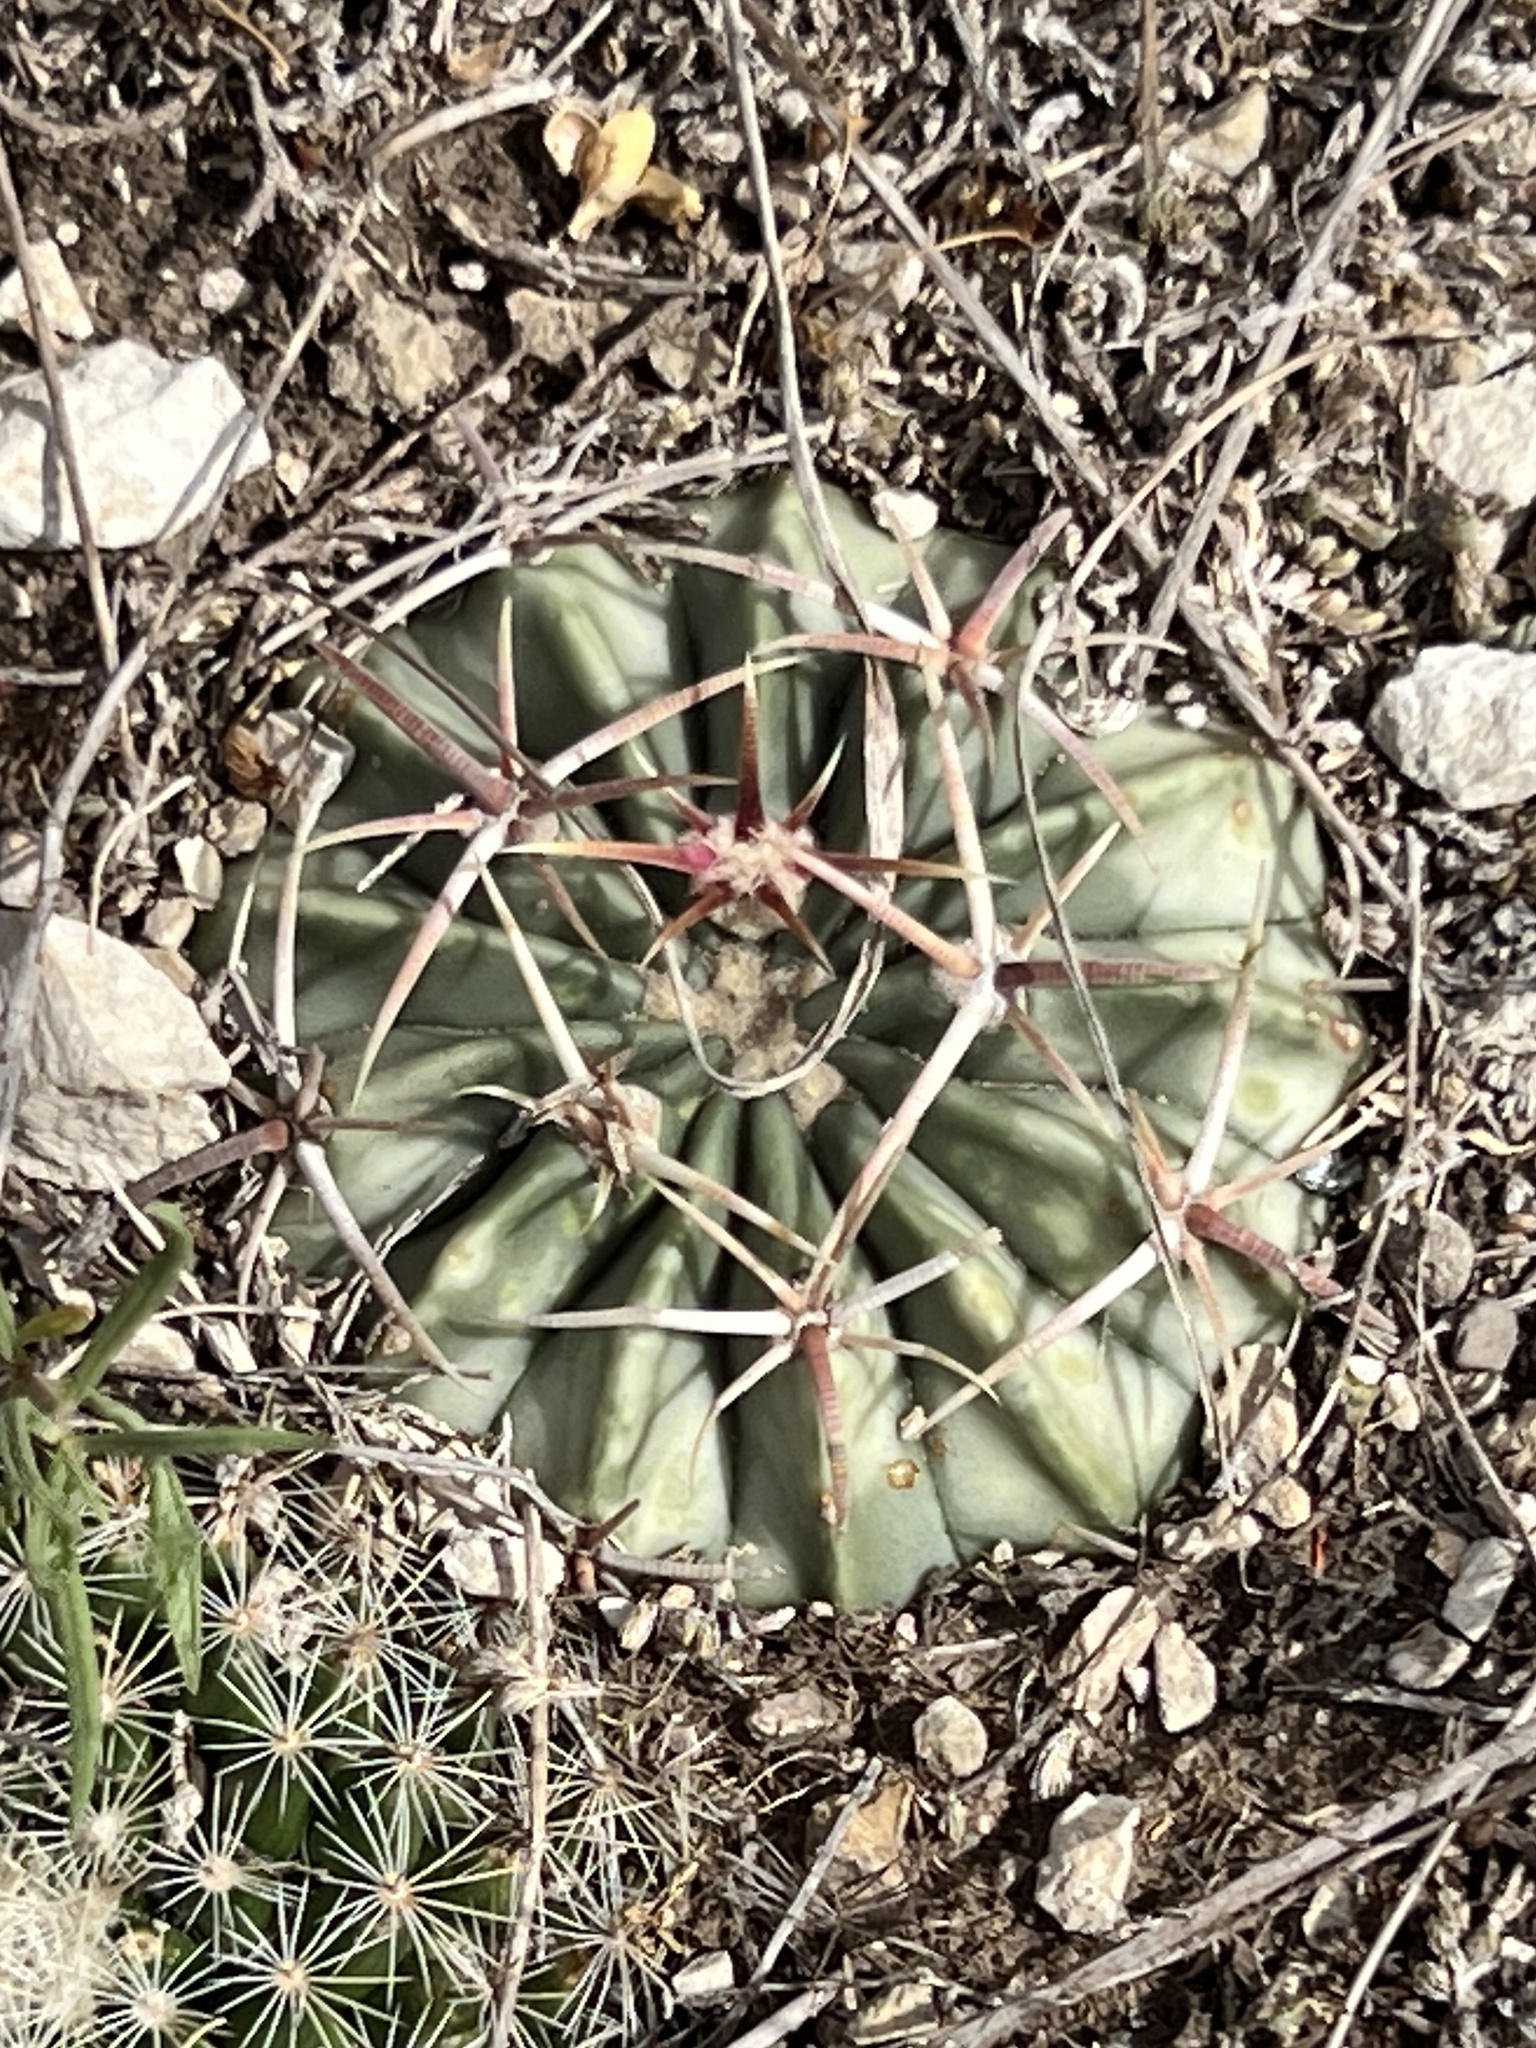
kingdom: Plantae
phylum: Tracheophyta
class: Magnoliopsida
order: Caryophyllales
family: Cactaceae
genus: Echinocactus
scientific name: Echinocactus texensis
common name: Devil's pincushion
